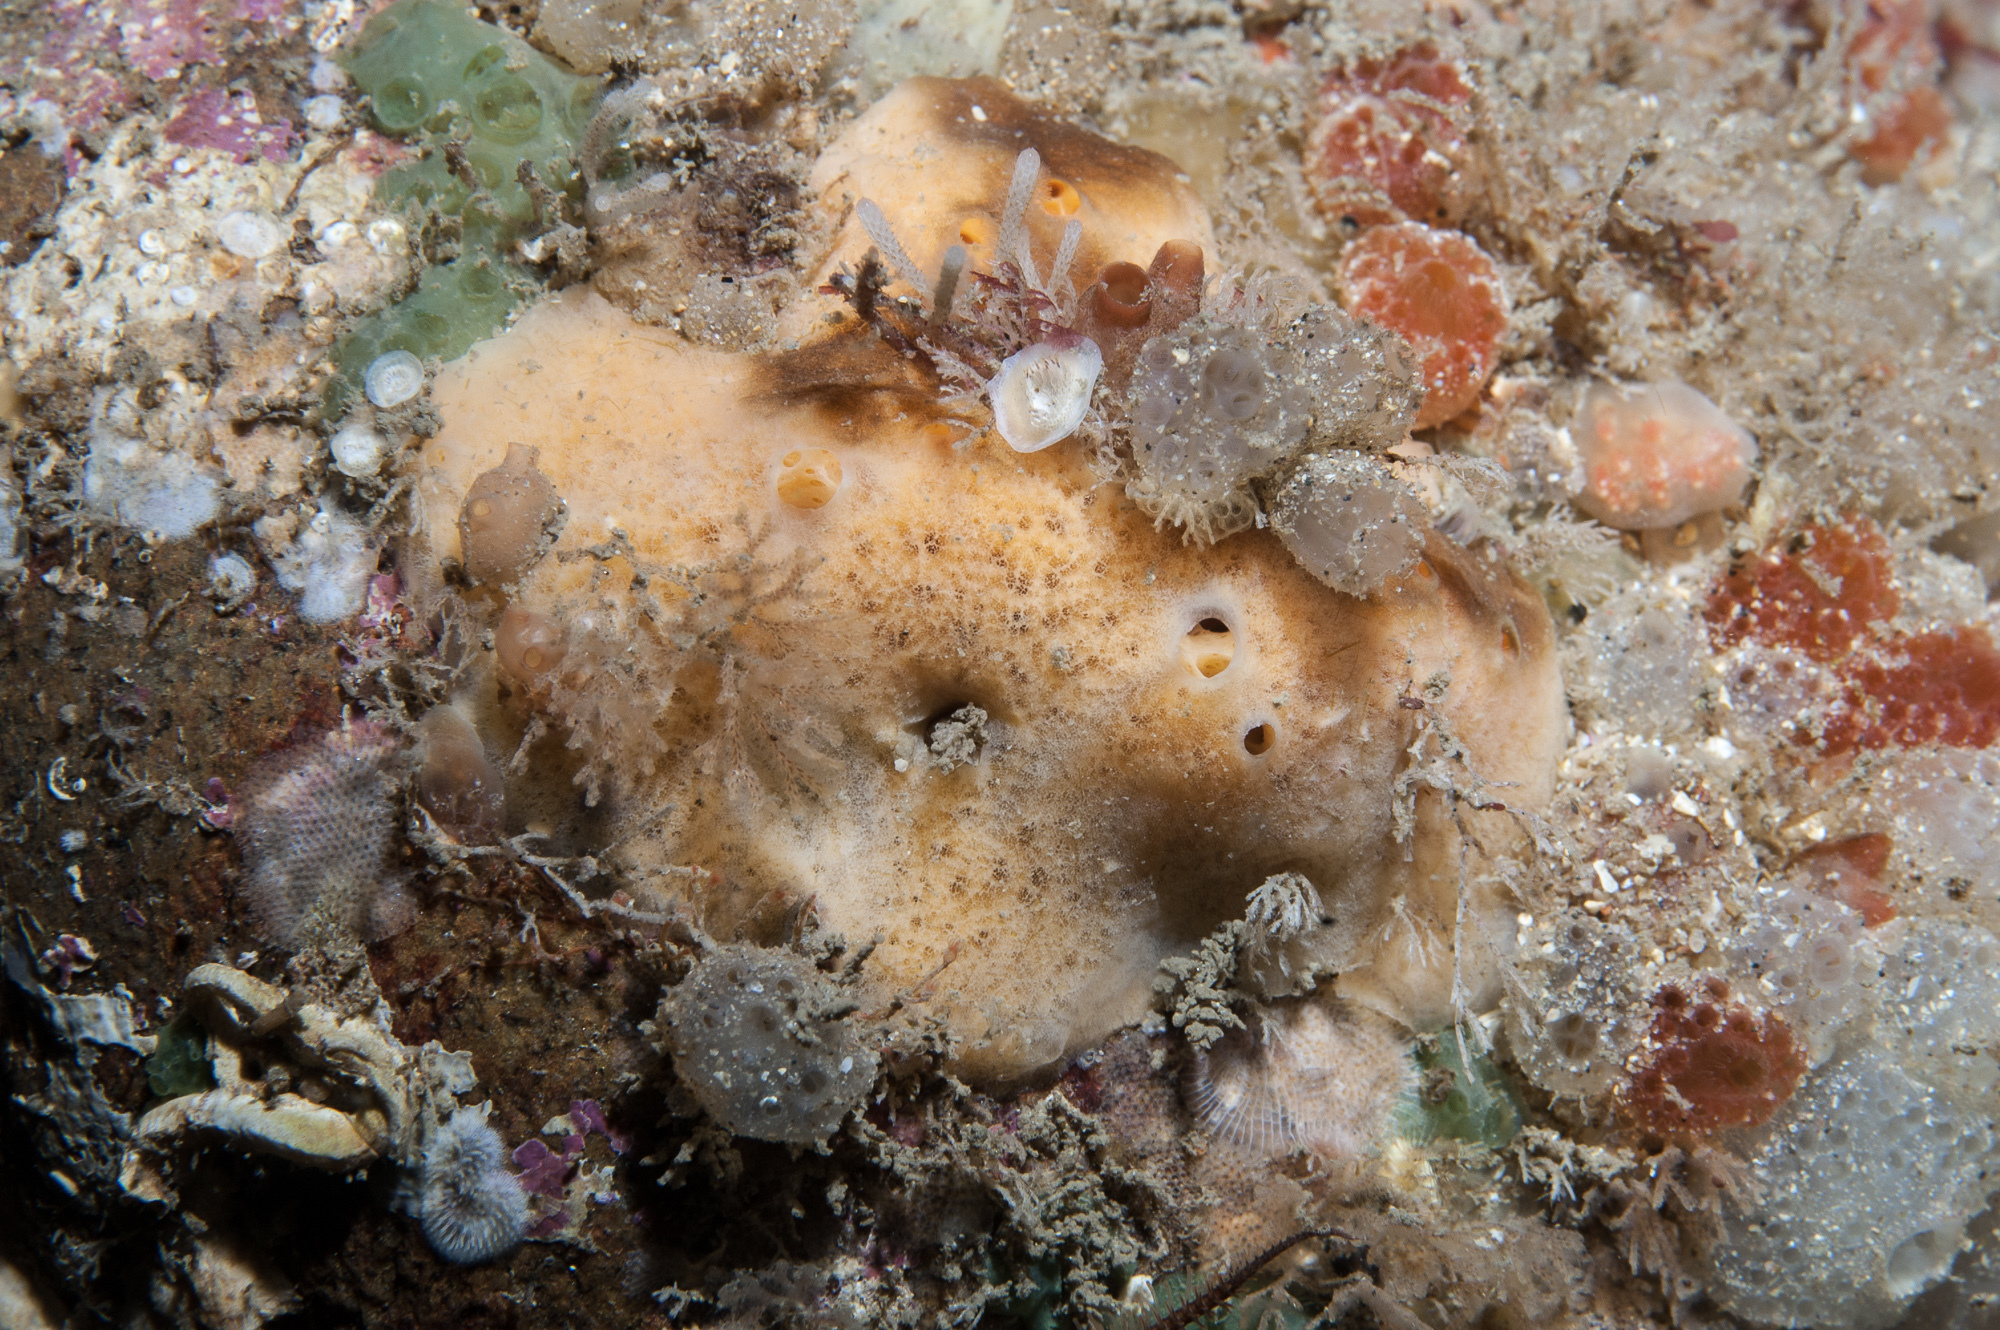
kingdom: Animalia
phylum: Porifera
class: Demospongiae
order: Poecilosclerida
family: Myxillidae
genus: Myxilla
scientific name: Myxilla fimbriata
